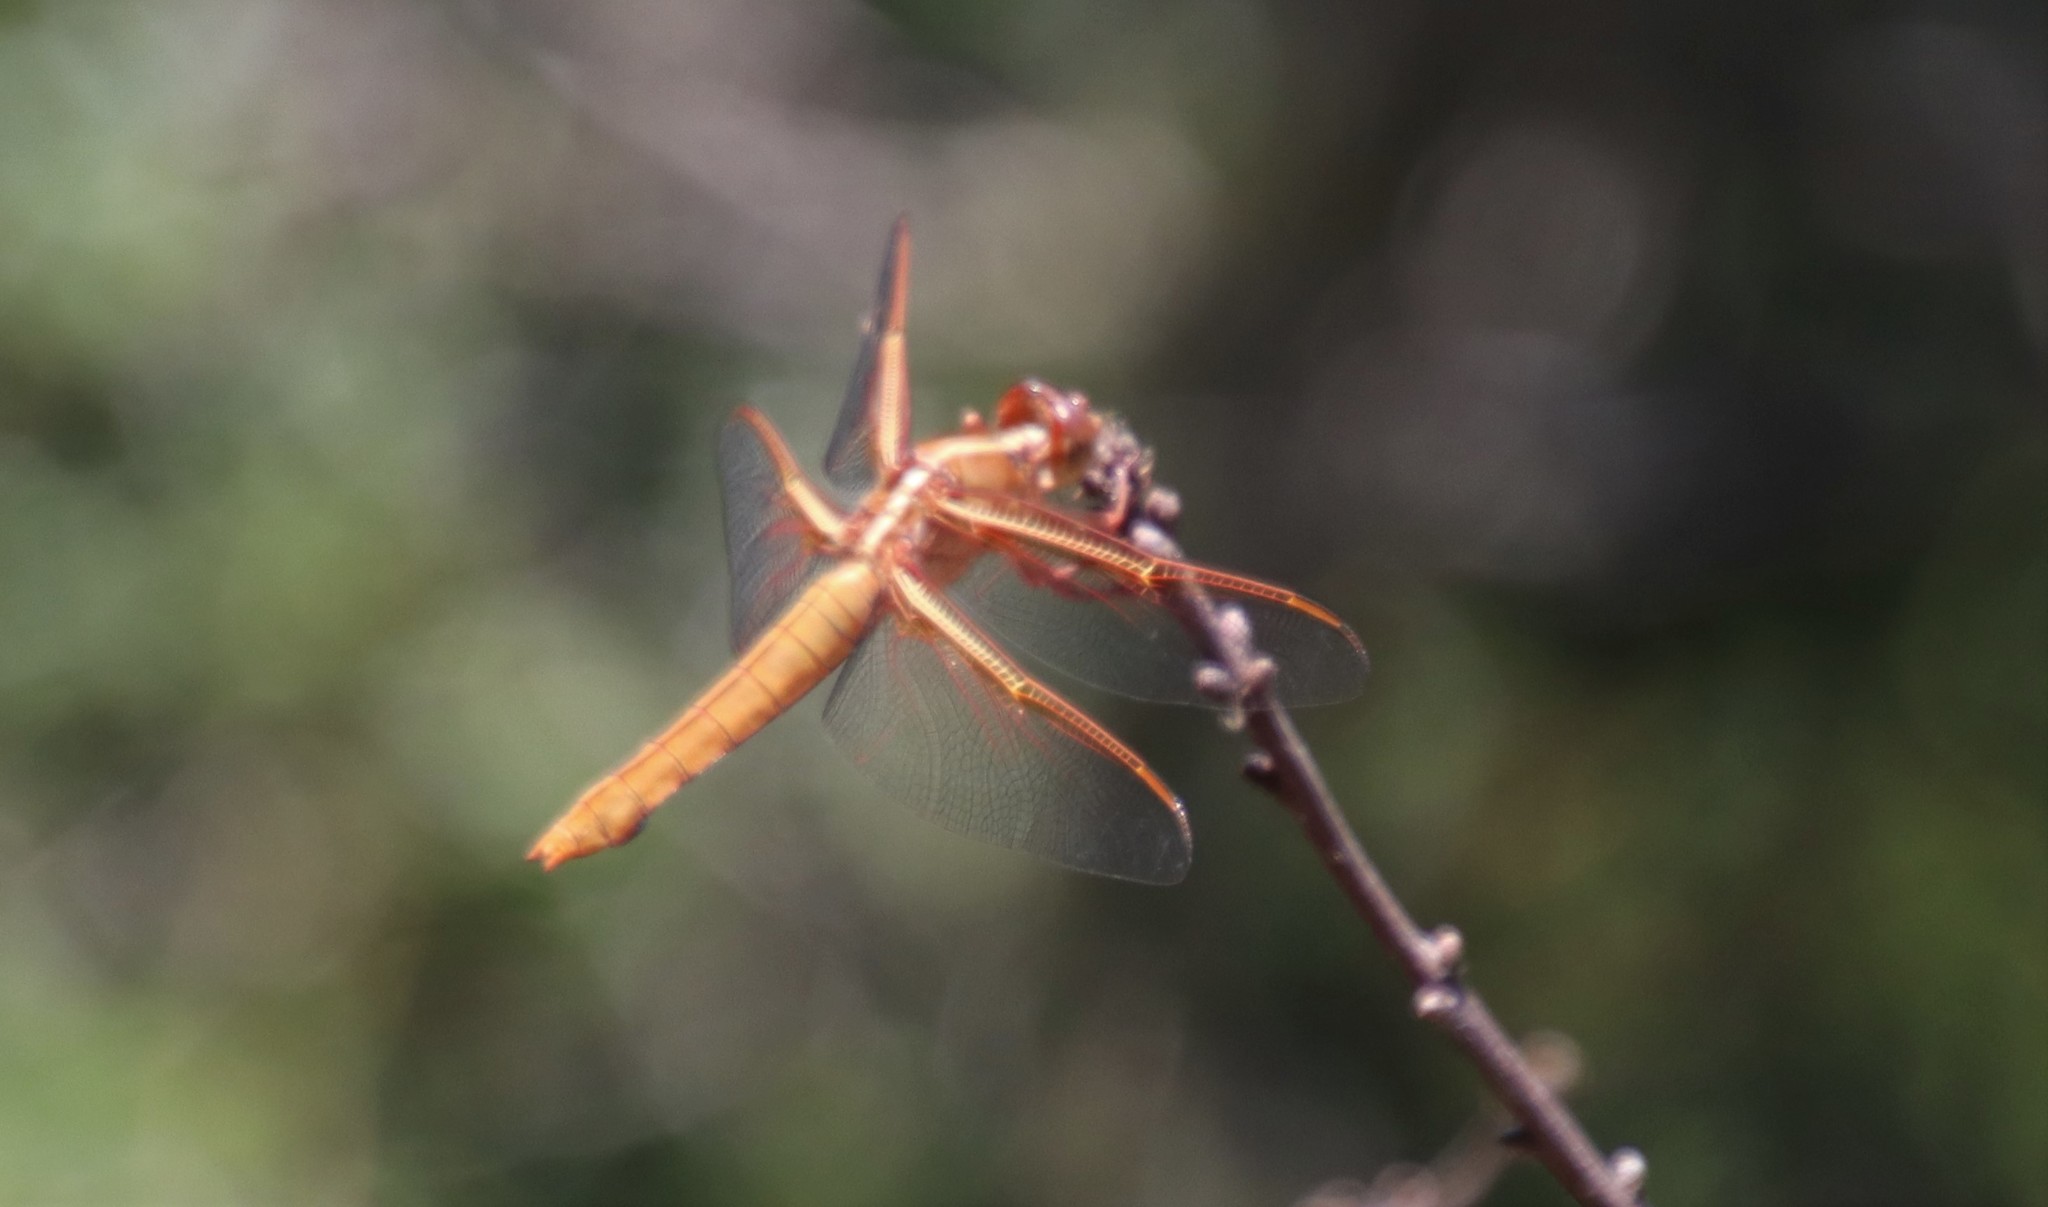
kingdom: Animalia
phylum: Arthropoda
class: Insecta
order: Odonata
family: Libellulidae
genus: Libellula
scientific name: Libellula saturata
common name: Flame skimmer
